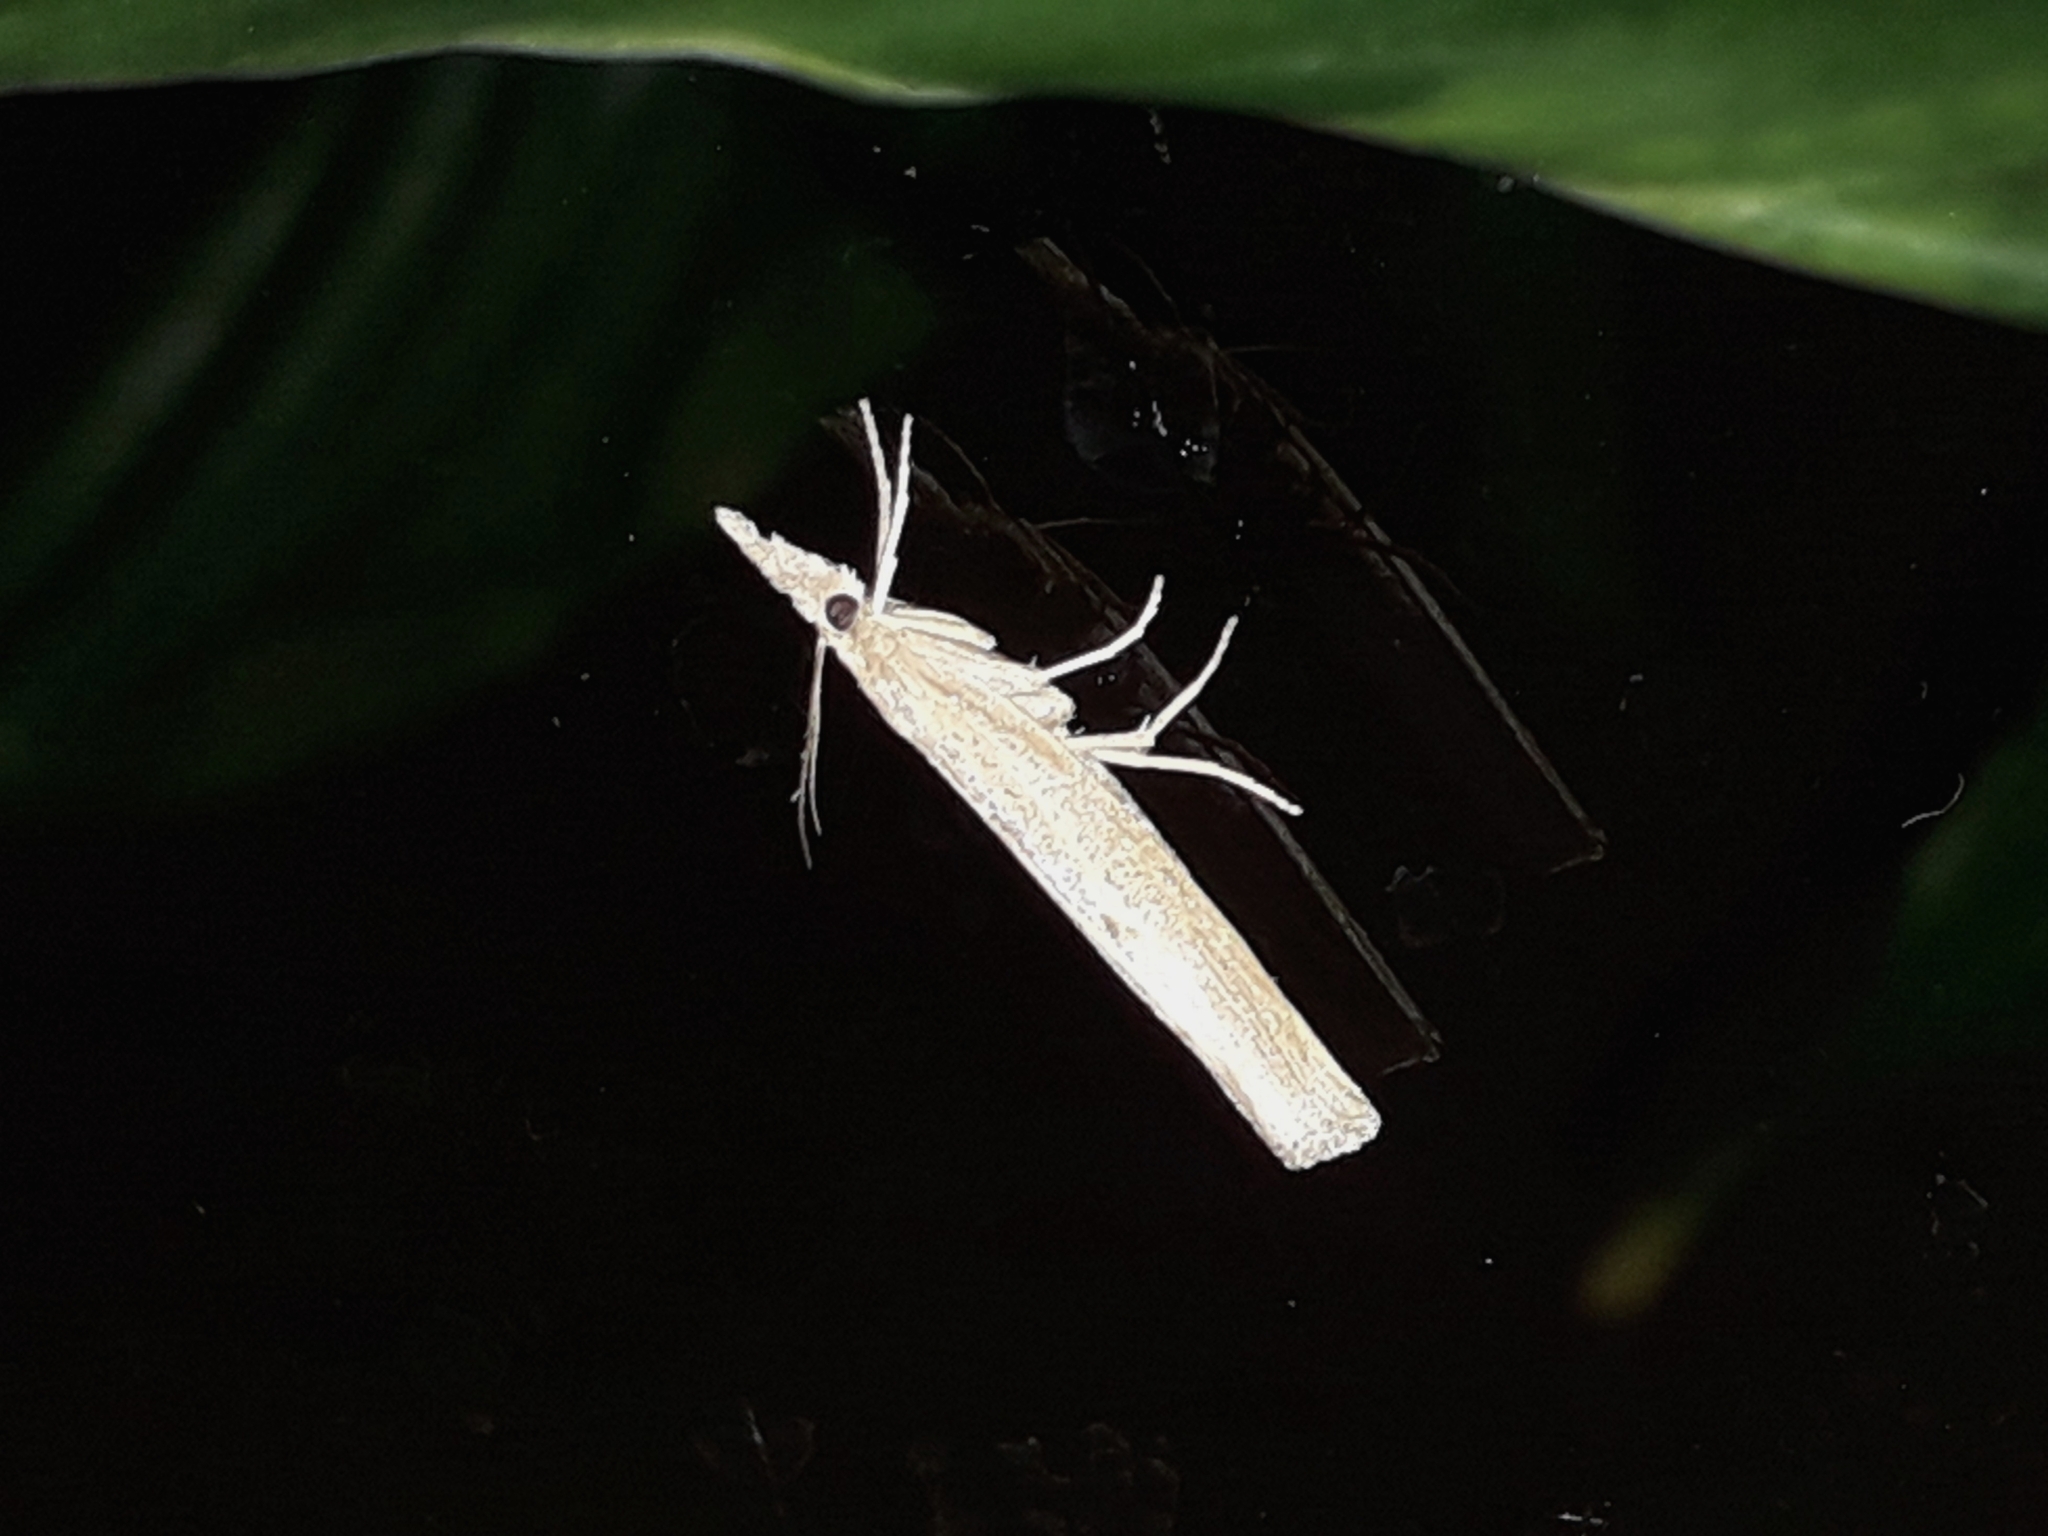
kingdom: Animalia
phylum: Arthropoda
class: Insecta
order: Lepidoptera
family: Crambidae
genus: Pediasia
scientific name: Pediasia contaminella
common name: Waste grass-veneer
